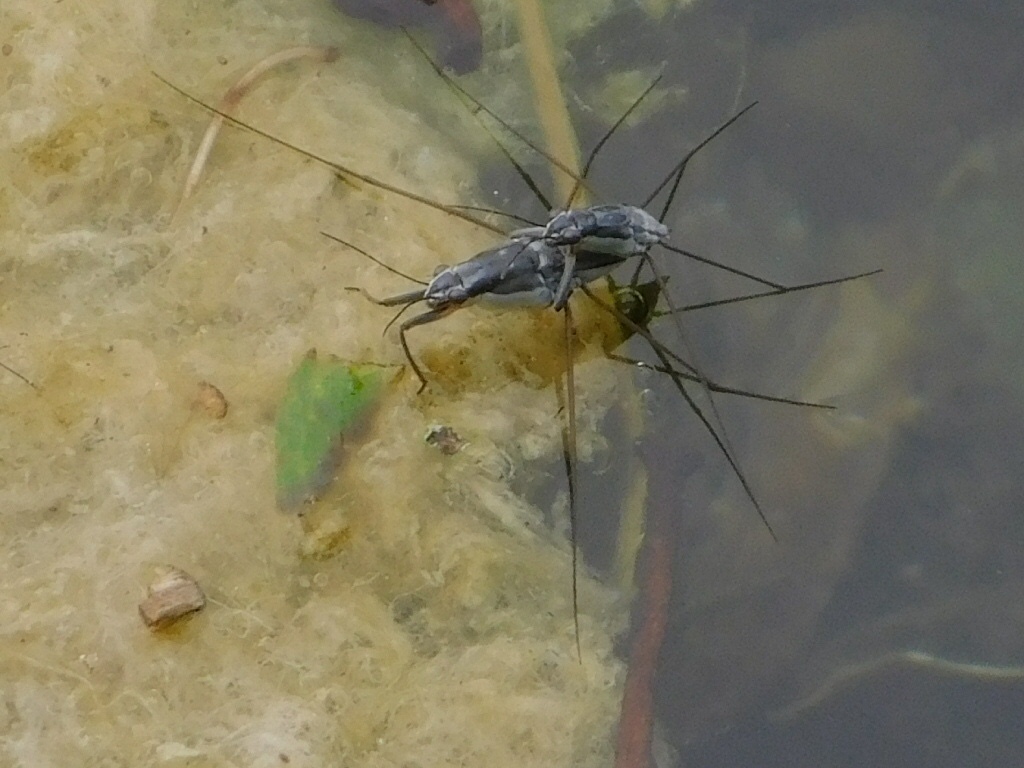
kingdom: Animalia
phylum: Arthropoda
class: Insecta
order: Hemiptera
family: Gerridae
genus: Neogerris
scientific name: Neogerris hesione
